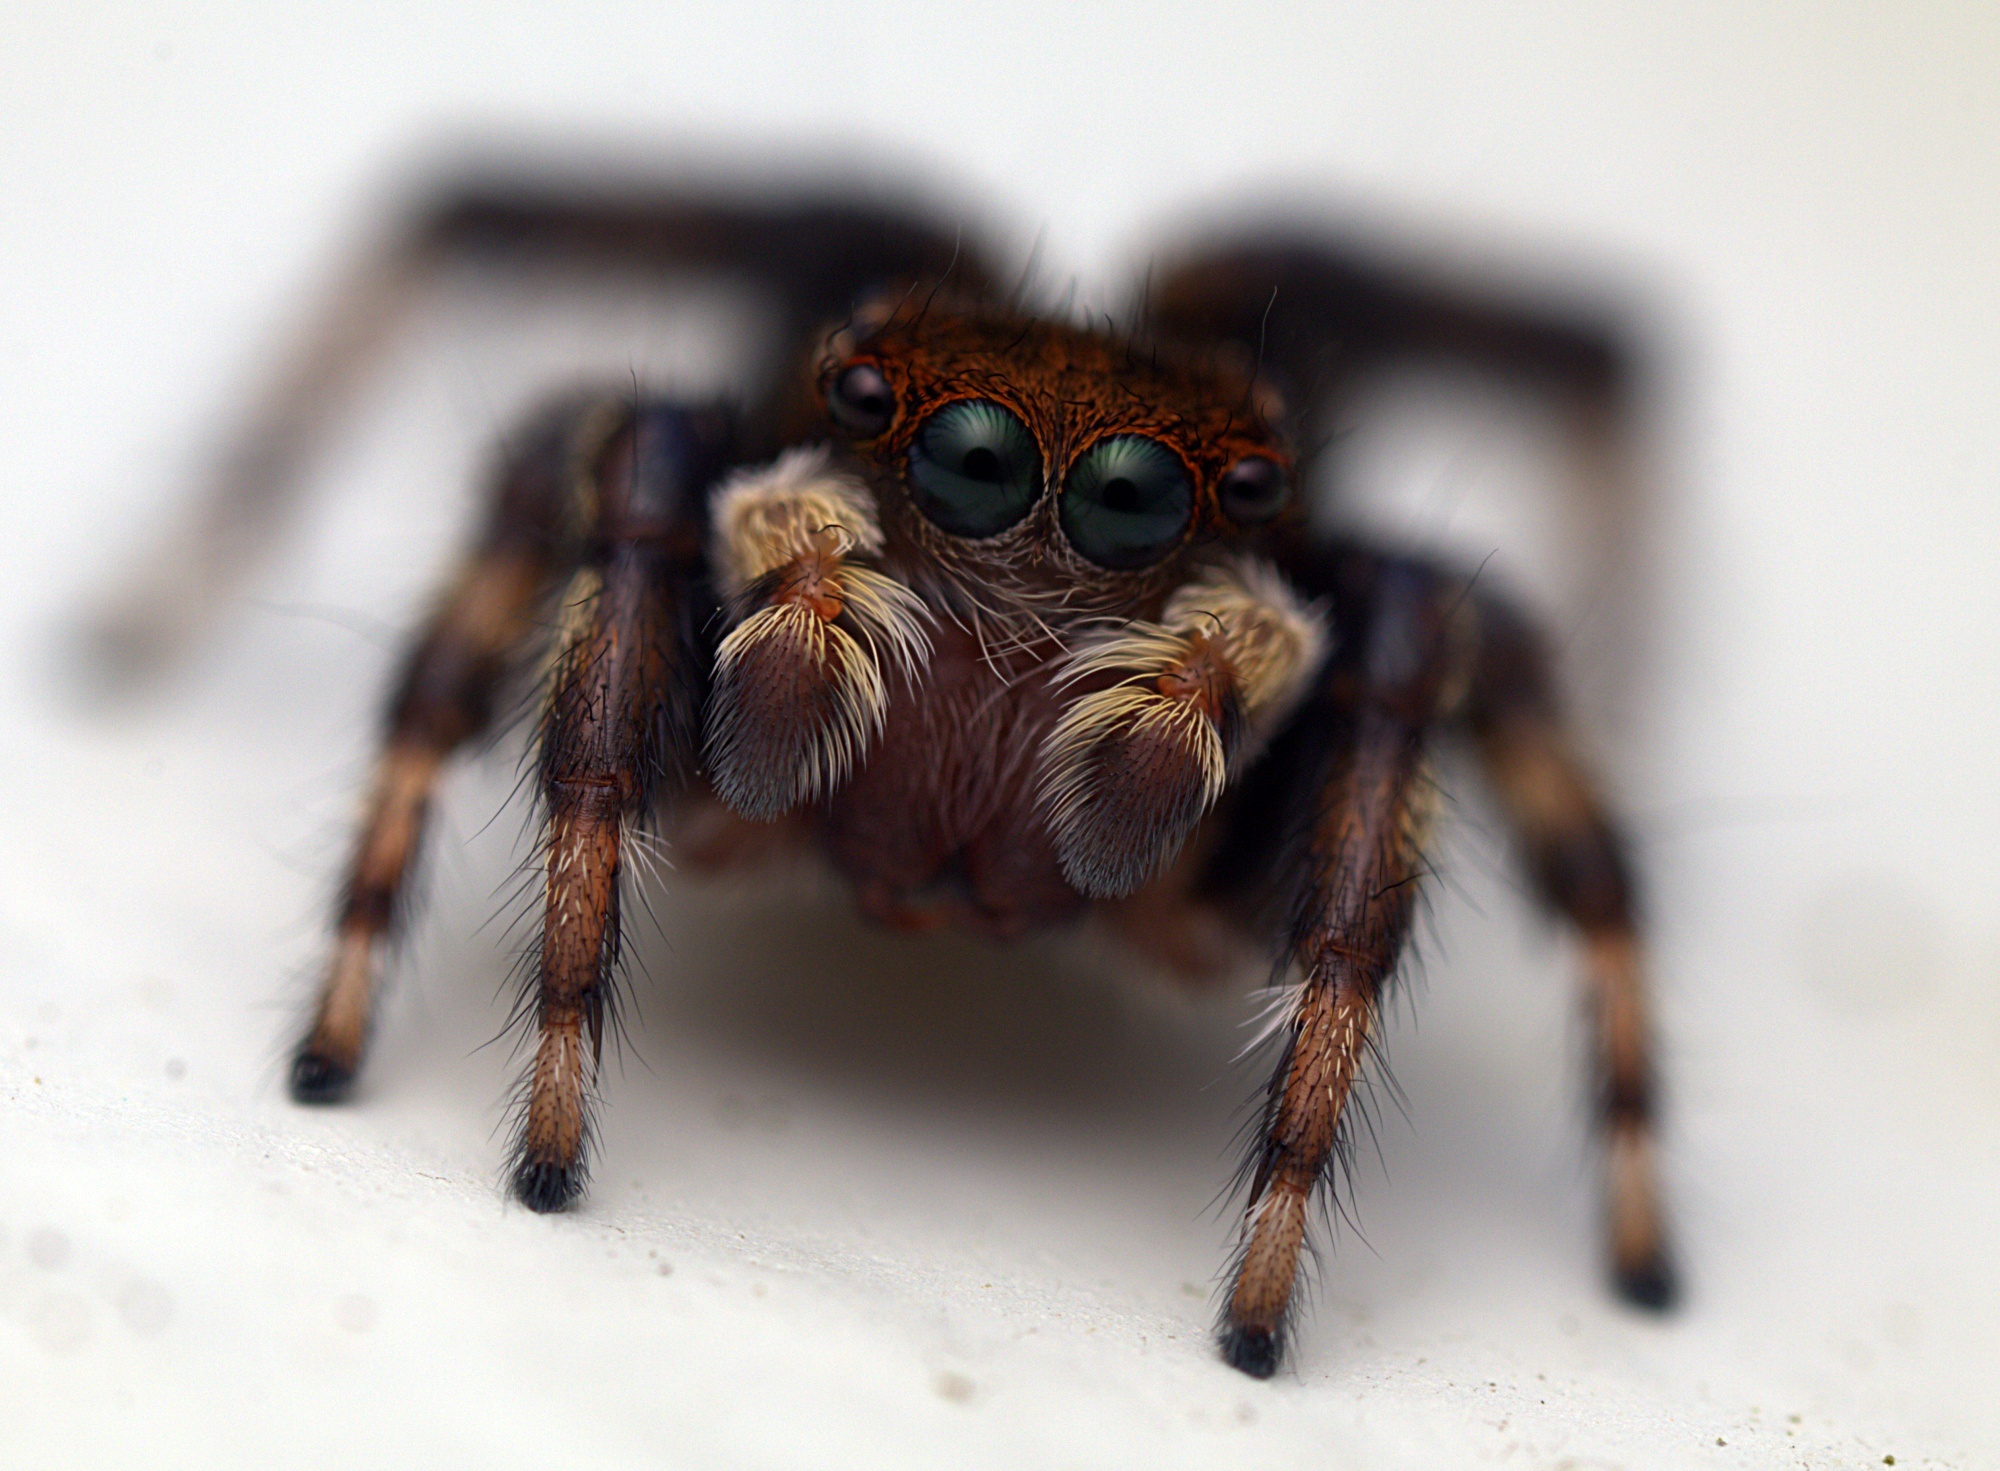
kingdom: Animalia
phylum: Arthropoda
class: Arachnida
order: Araneae
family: Salticidae
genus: Maratus
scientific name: Maratus griseus
